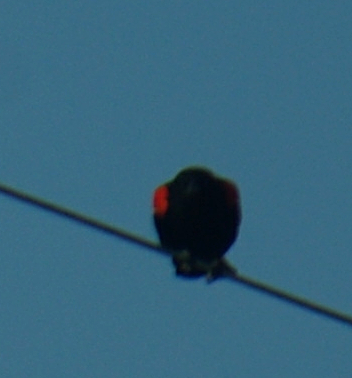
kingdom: Animalia
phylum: Chordata
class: Aves
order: Passeriformes
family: Icteridae
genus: Agelaius
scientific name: Agelaius phoeniceus
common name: Red-winged blackbird
